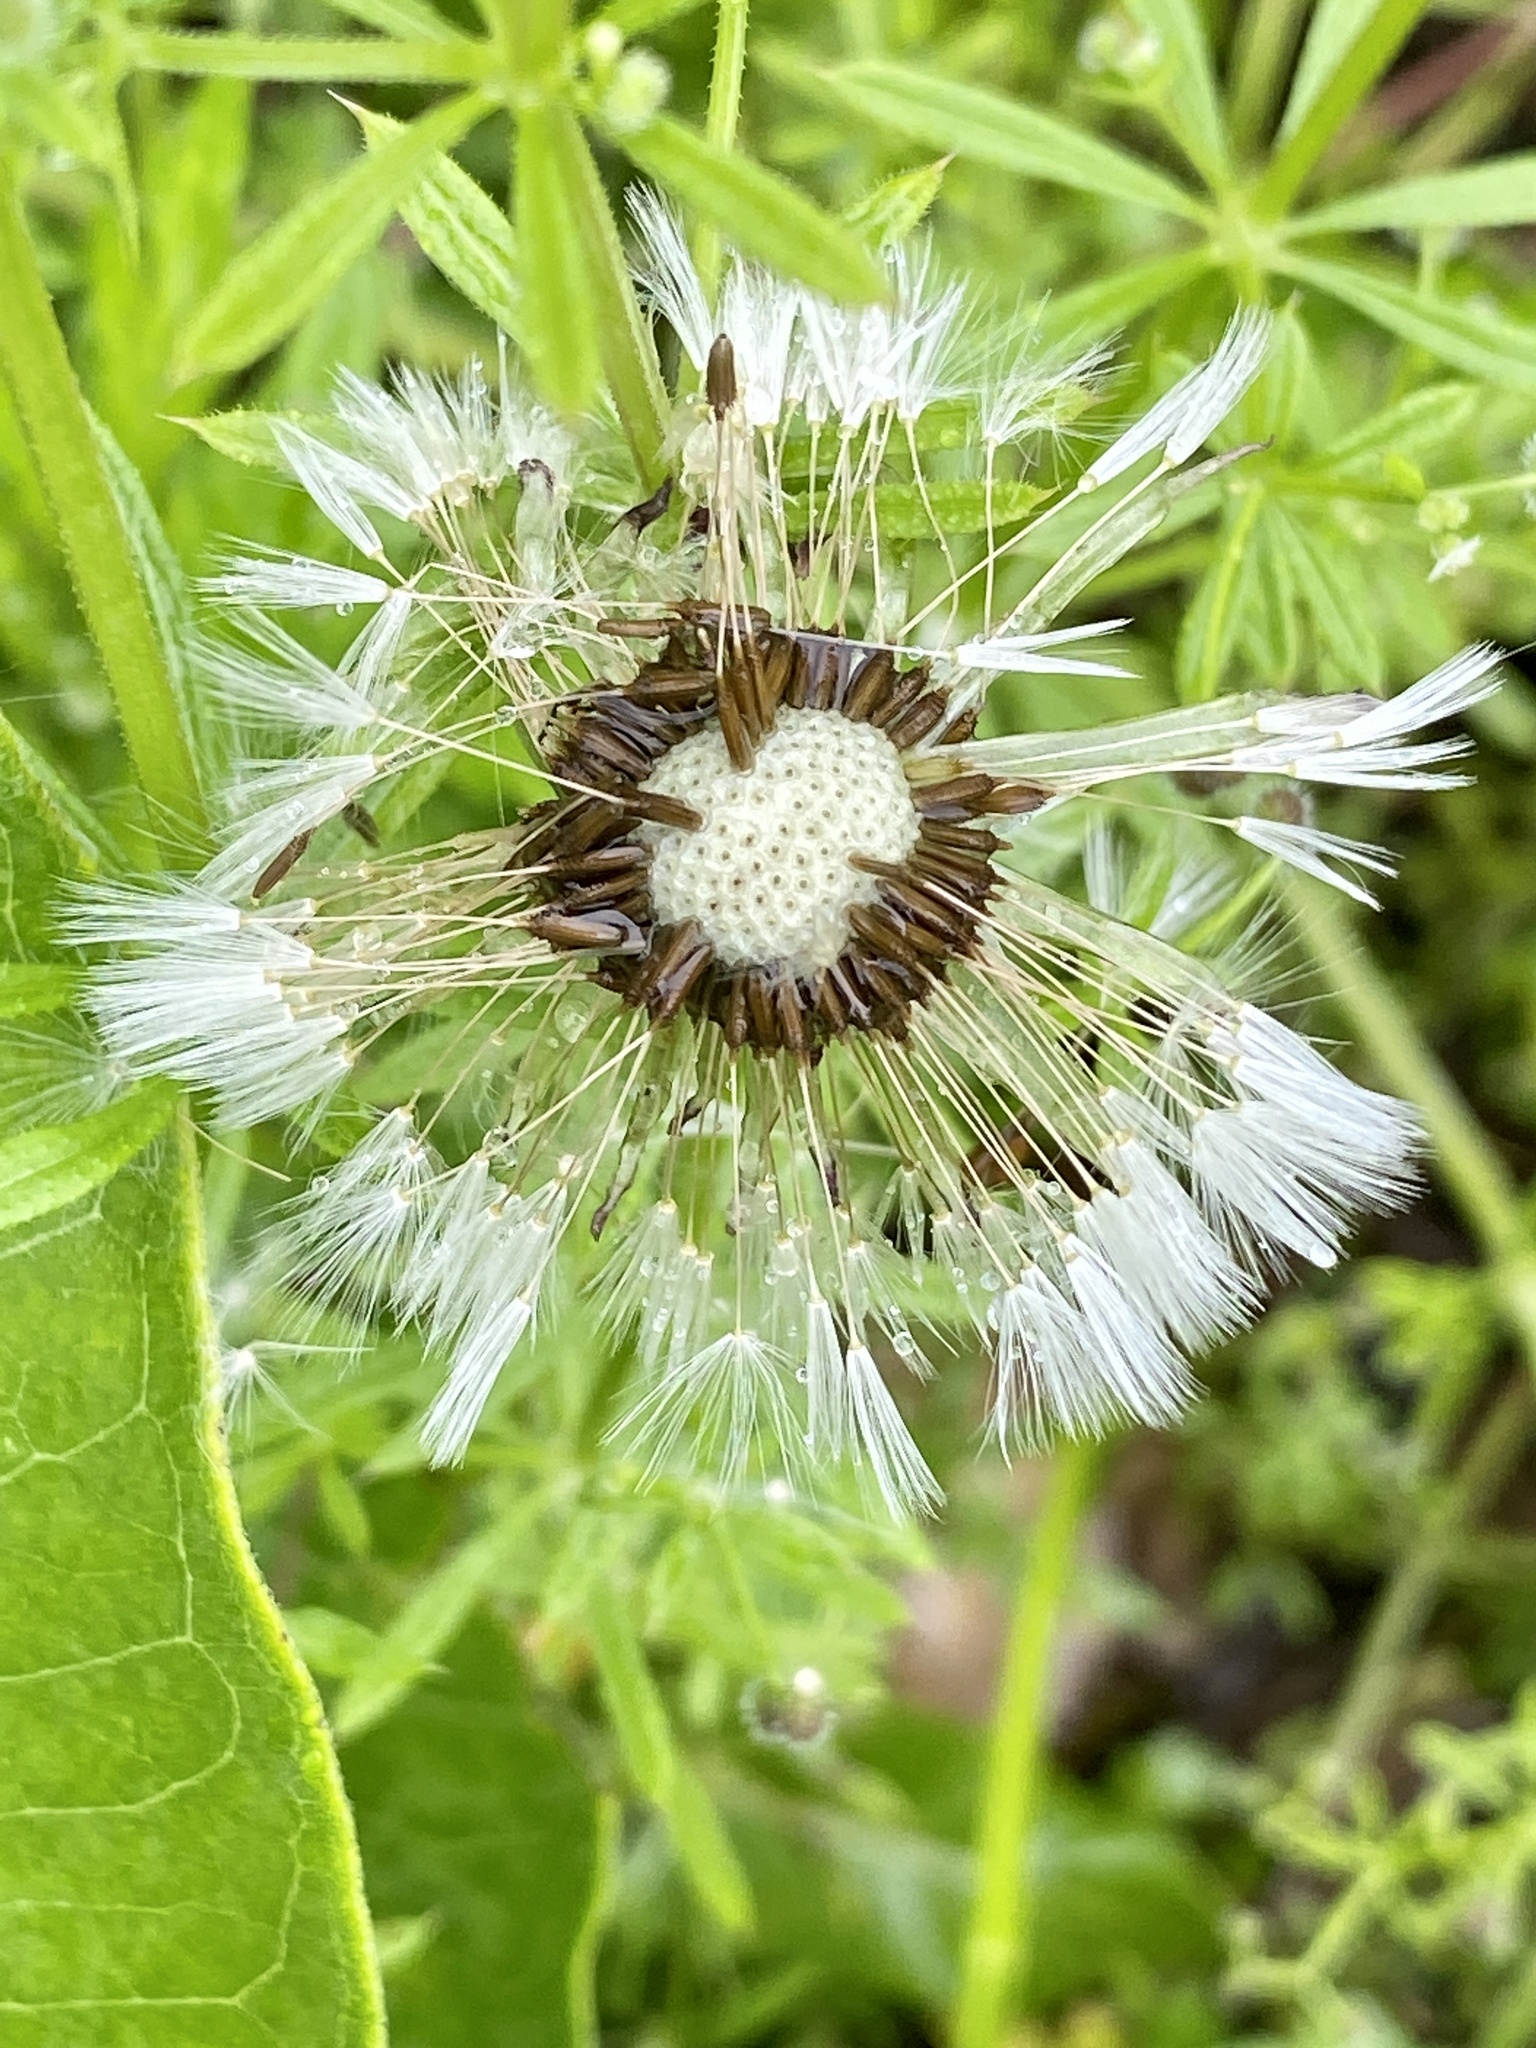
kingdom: Plantae
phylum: Tracheophyta
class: Magnoliopsida
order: Asterales
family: Asteraceae
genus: Taraxacum
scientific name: Taraxacum officinale
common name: Common dandelion
